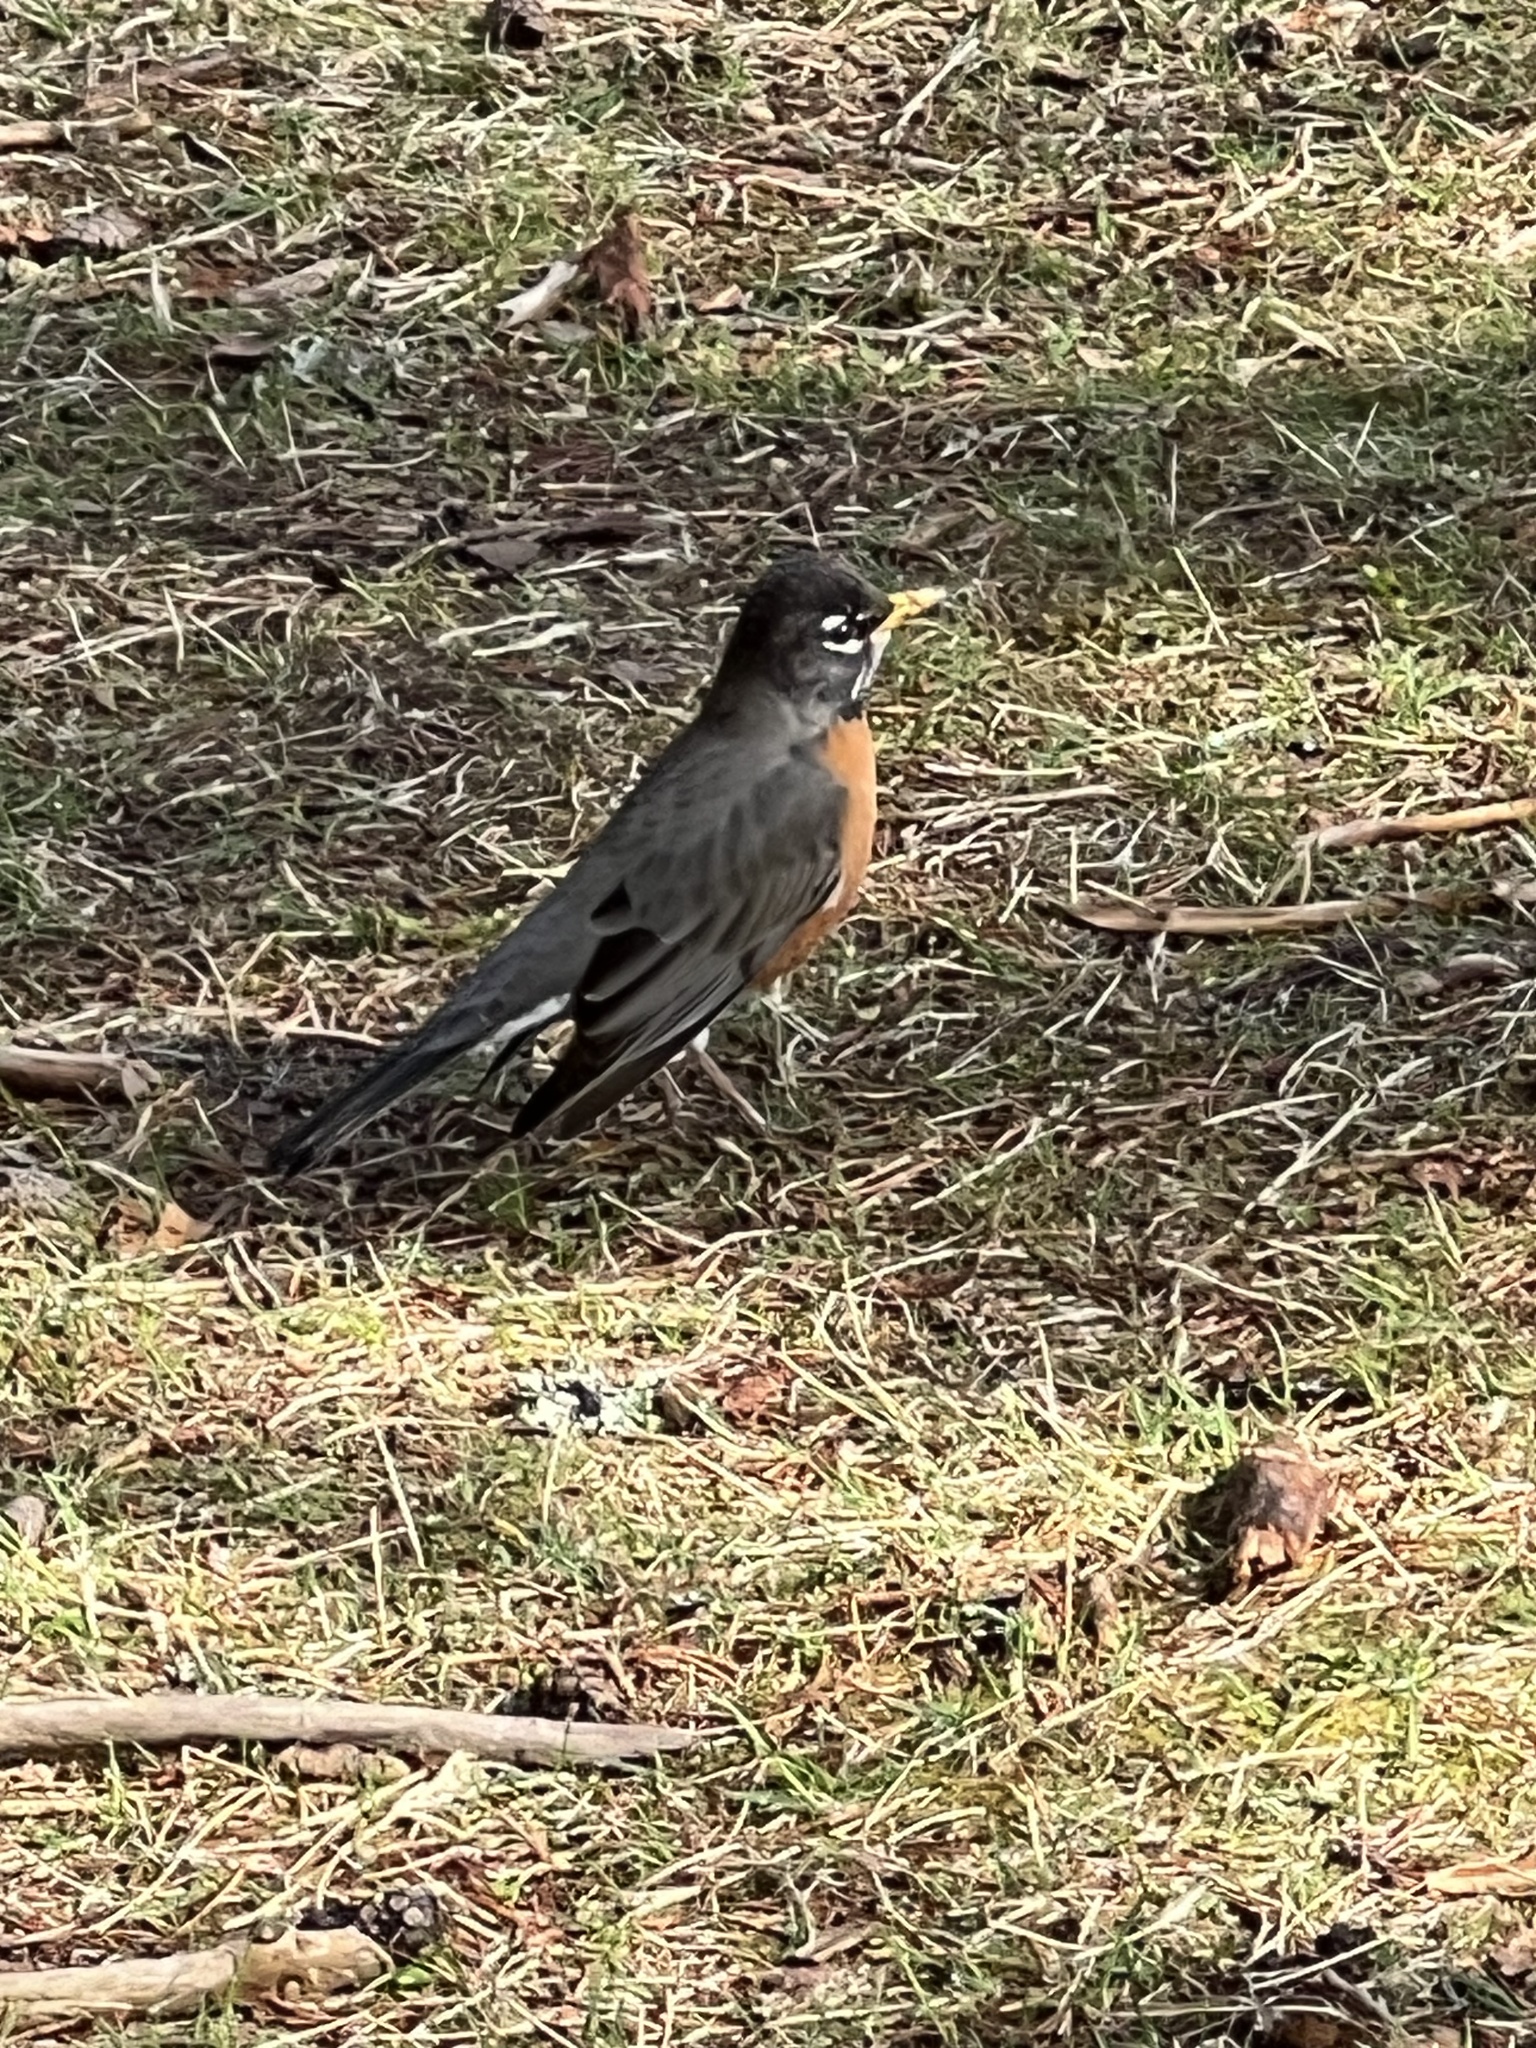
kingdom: Animalia
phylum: Chordata
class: Aves
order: Passeriformes
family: Turdidae
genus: Turdus
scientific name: Turdus migratorius
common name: American robin
